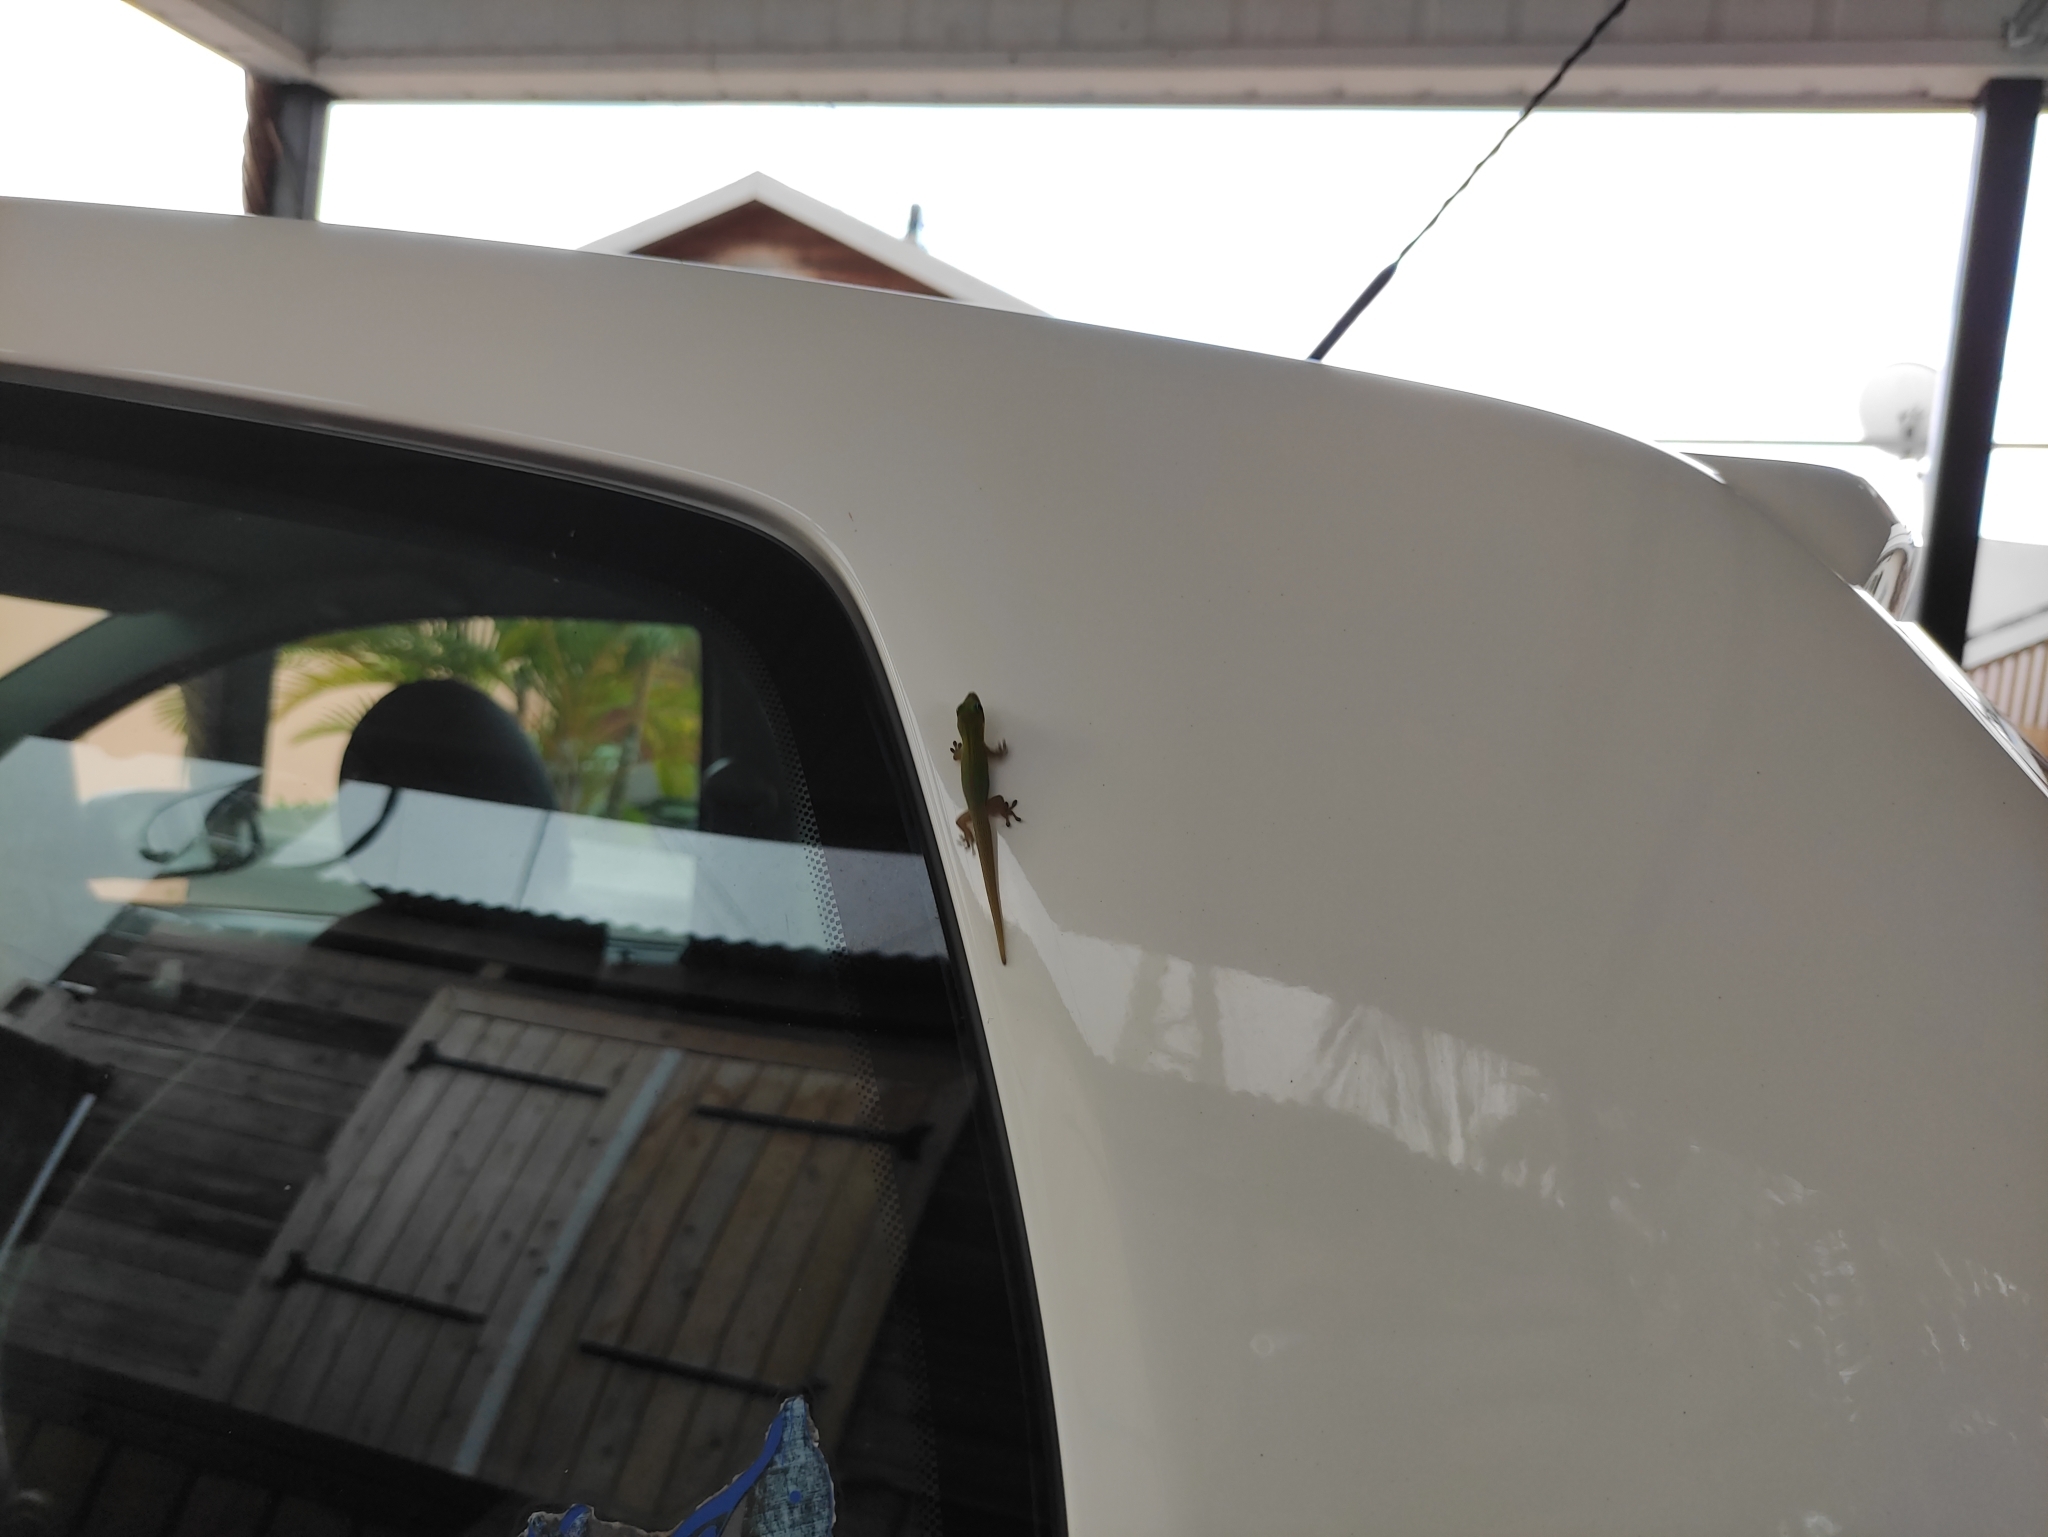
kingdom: Animalia
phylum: Chordata
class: Squamata
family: Gekkonidae
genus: Phelsuma
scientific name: Phelsuma laticauda
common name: Gold dust day gecko
